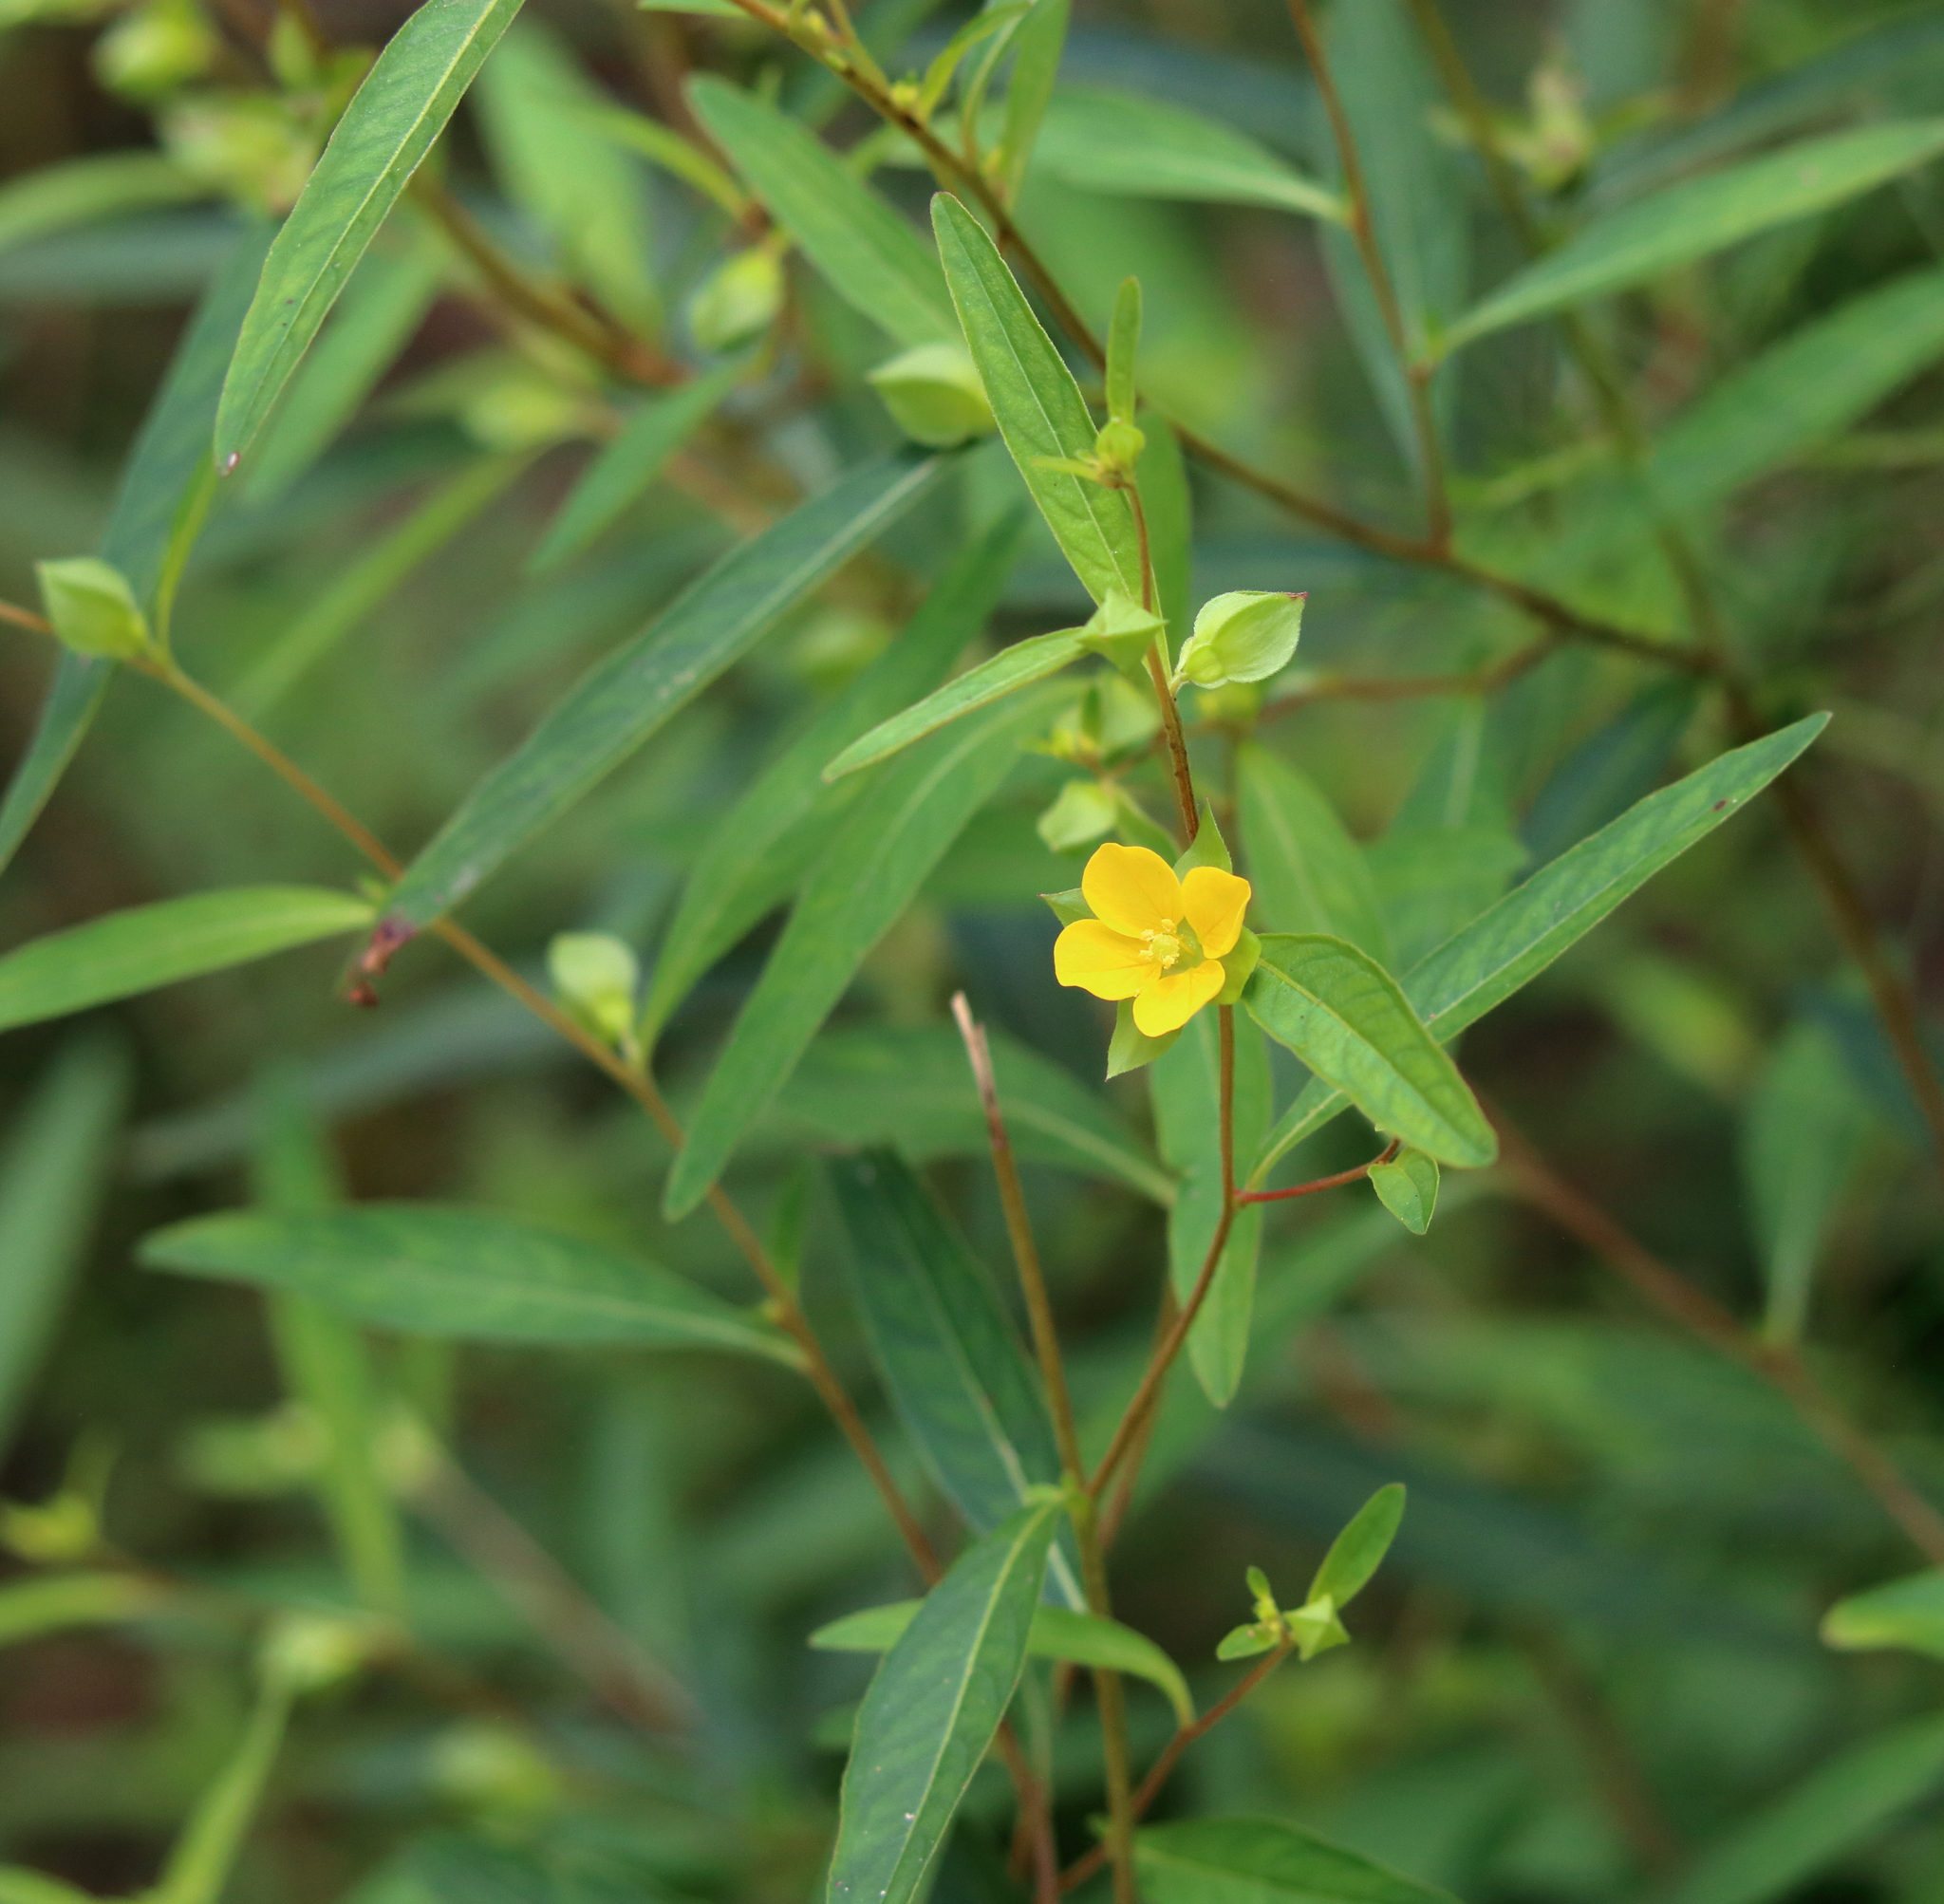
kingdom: Plantae
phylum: Tracheophyta
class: Magnoliopsida
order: Myrtales
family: Onagraceae
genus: Ludwigia
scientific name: Ludwigia alternifolia
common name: Rattlebox
